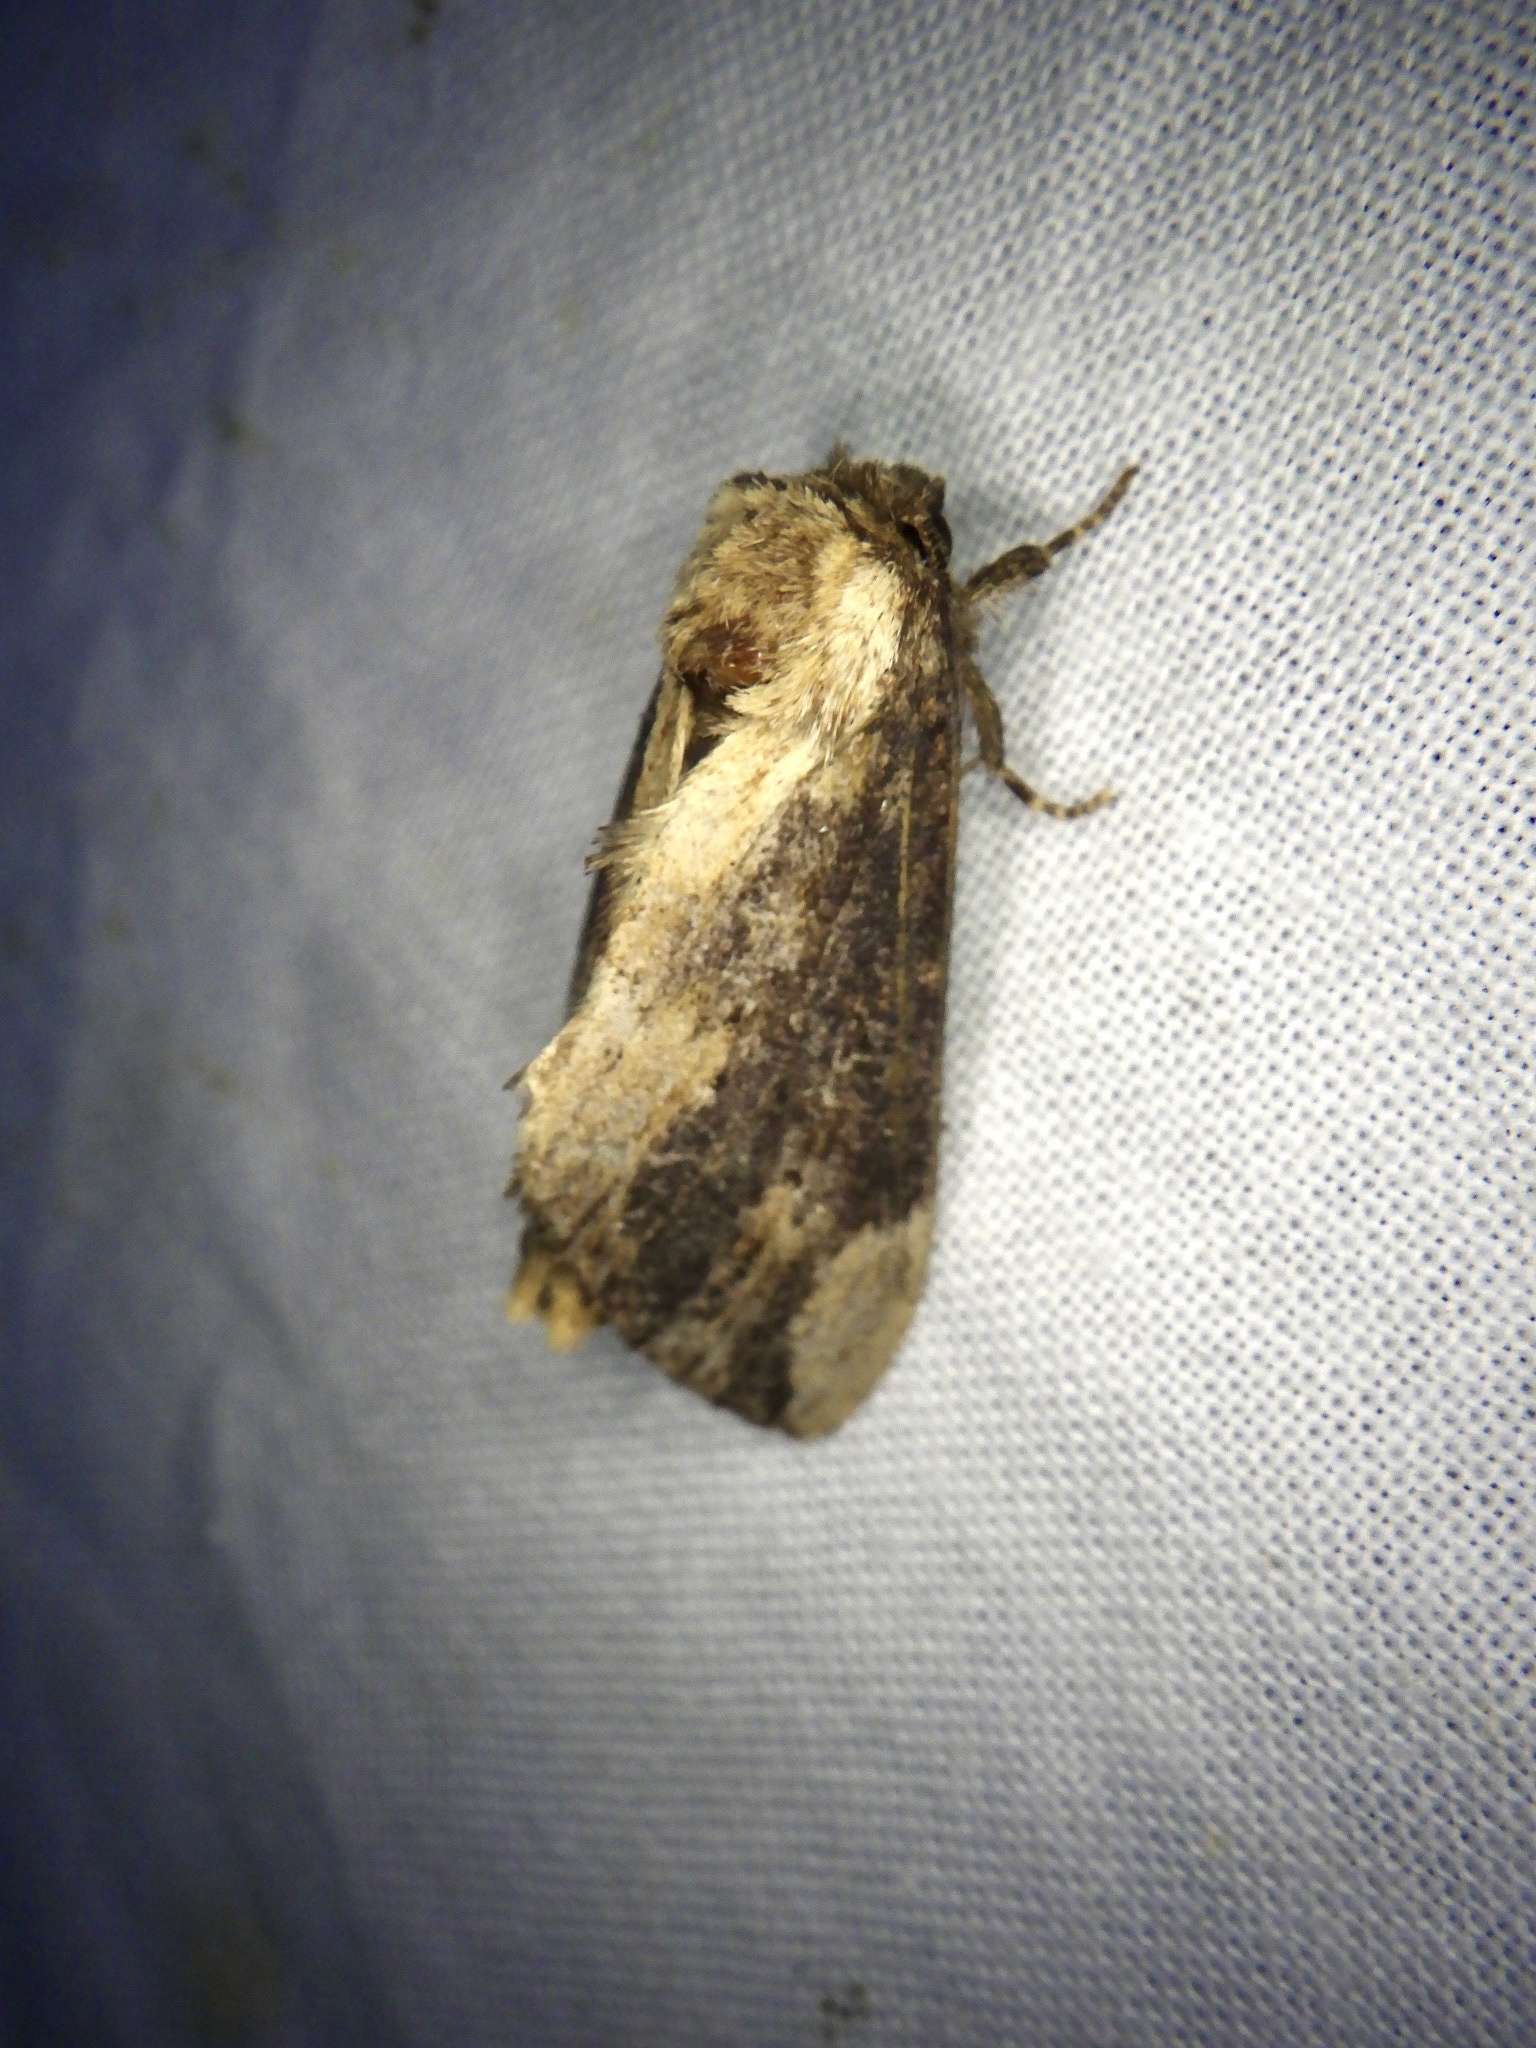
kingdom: Animalia
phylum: Arthropoda
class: Insecta
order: Lepidoptera
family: Notodontidae
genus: Hiradonta
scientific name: Hiradonta takaonis
